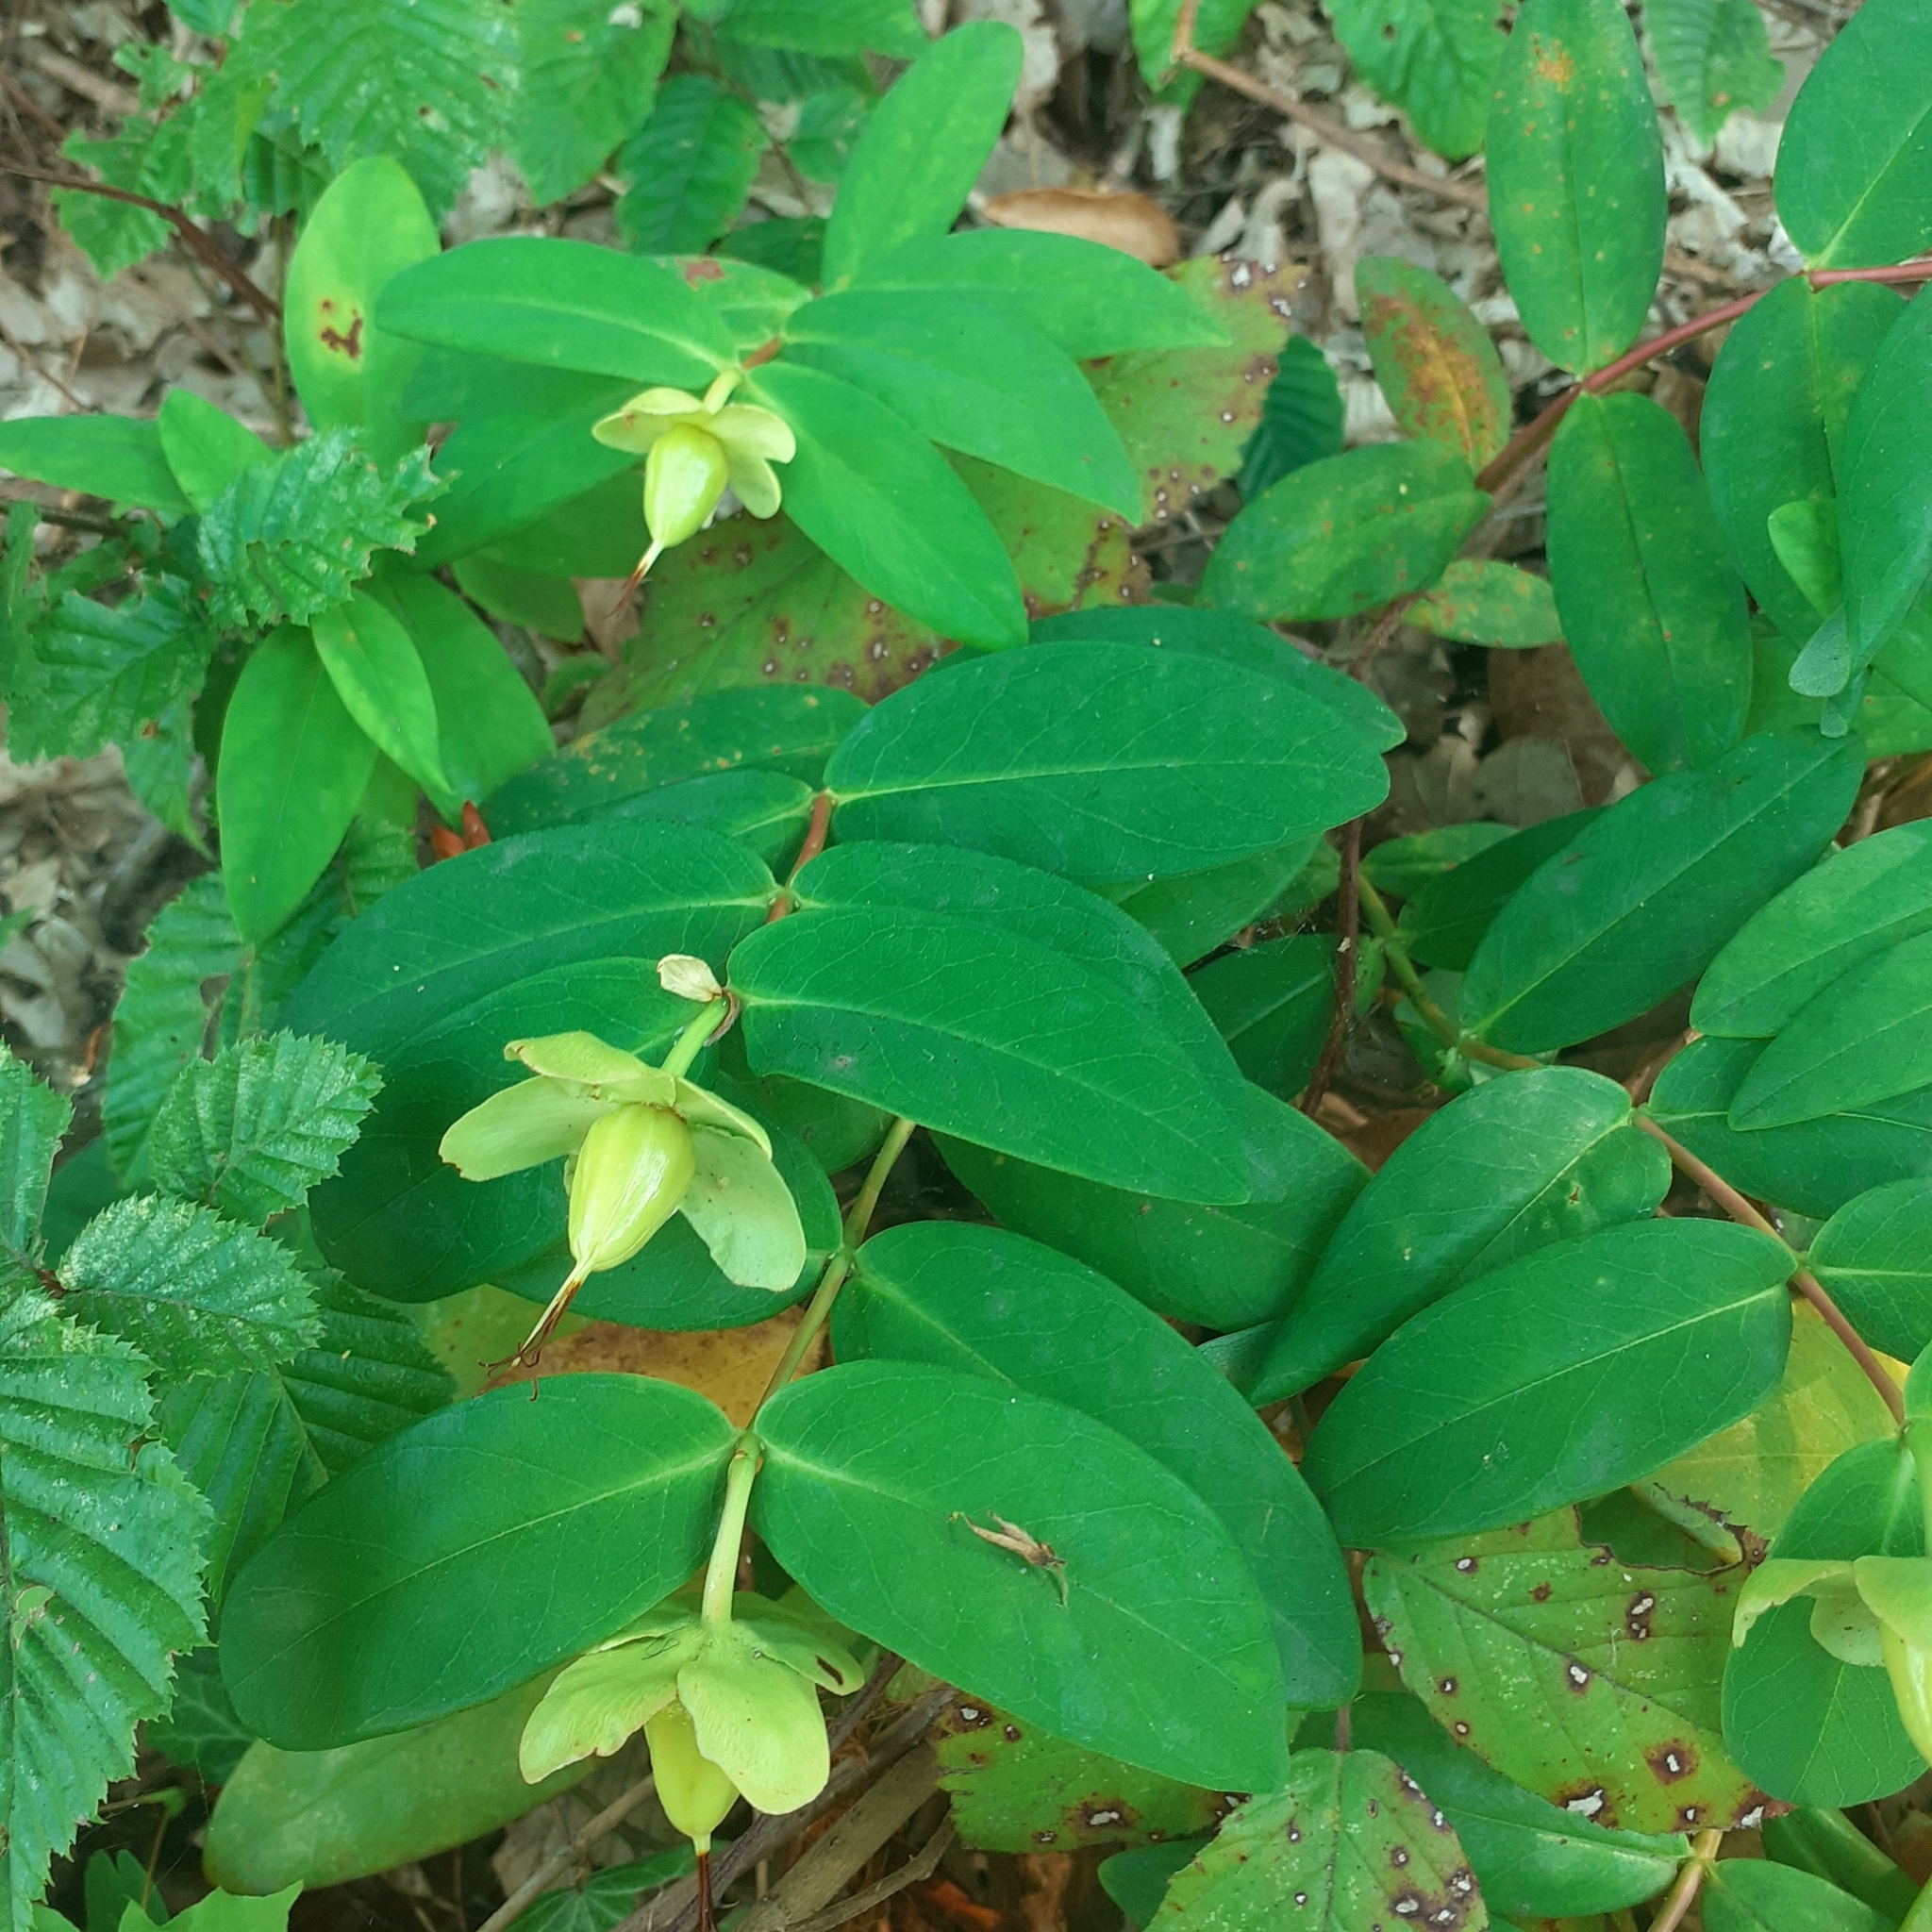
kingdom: Plantae
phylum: Tracheophyta
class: Magnoliopsida
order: Malpighiales
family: Hypericaceae
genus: Hypericum
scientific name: Hypericum calycinum
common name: Rose-of-sharon
